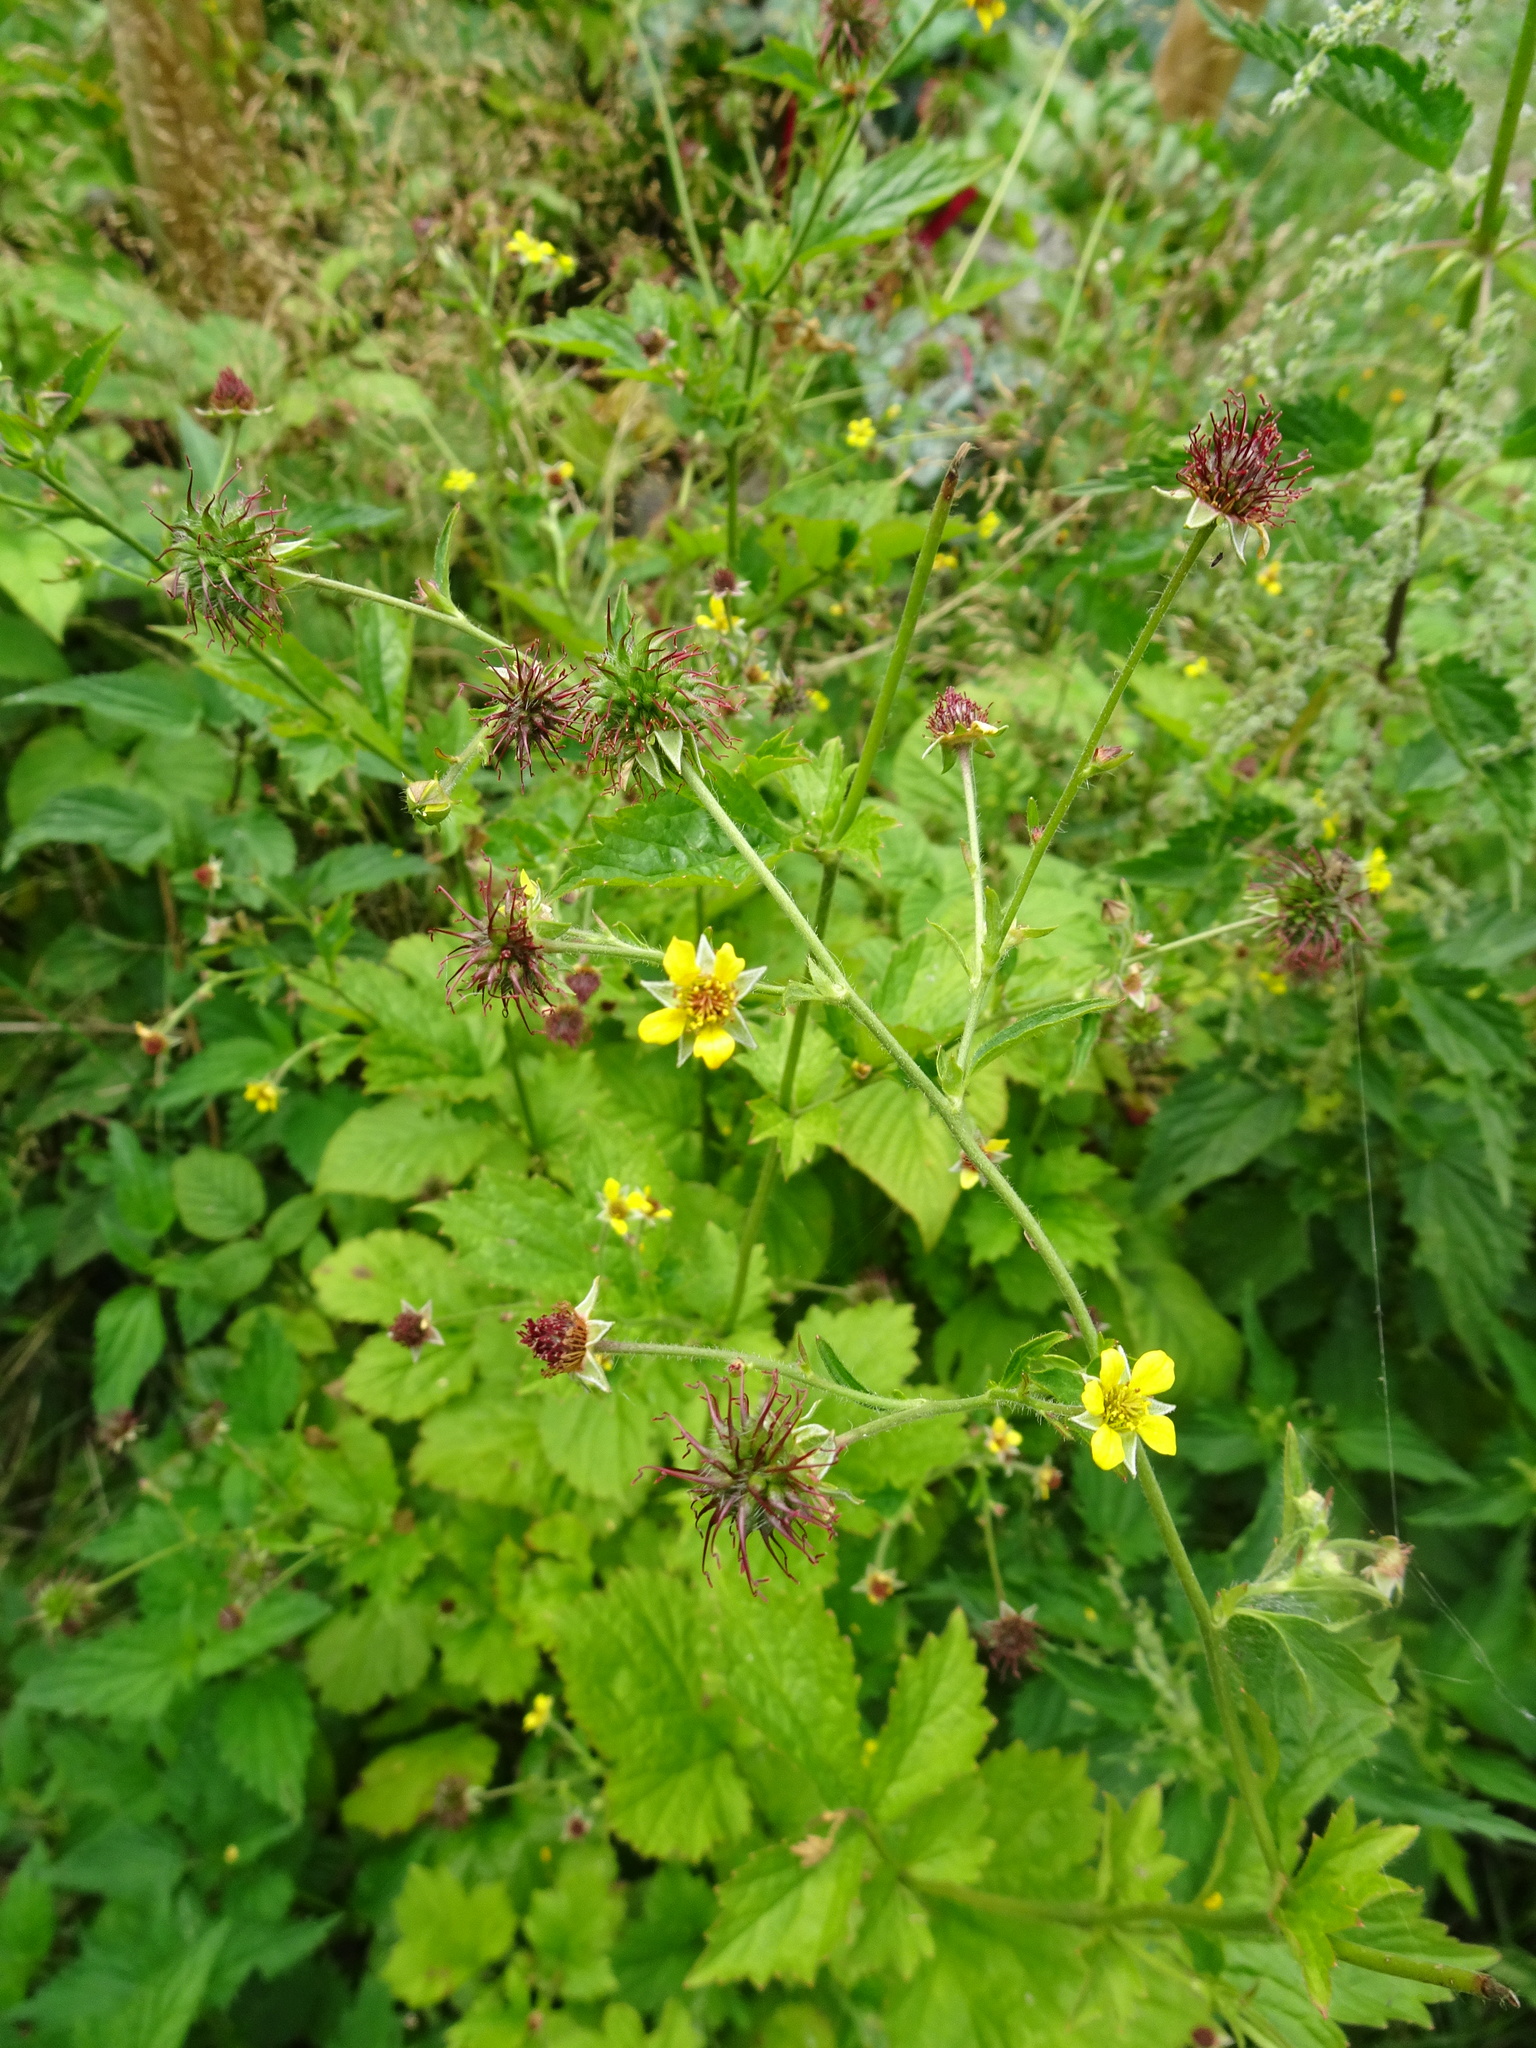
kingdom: Plantae
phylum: Tracheophyta
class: Magnoliopsida
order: Rosales
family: Rosaceae
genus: Geum
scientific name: Geum urbanum
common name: Wood avens
